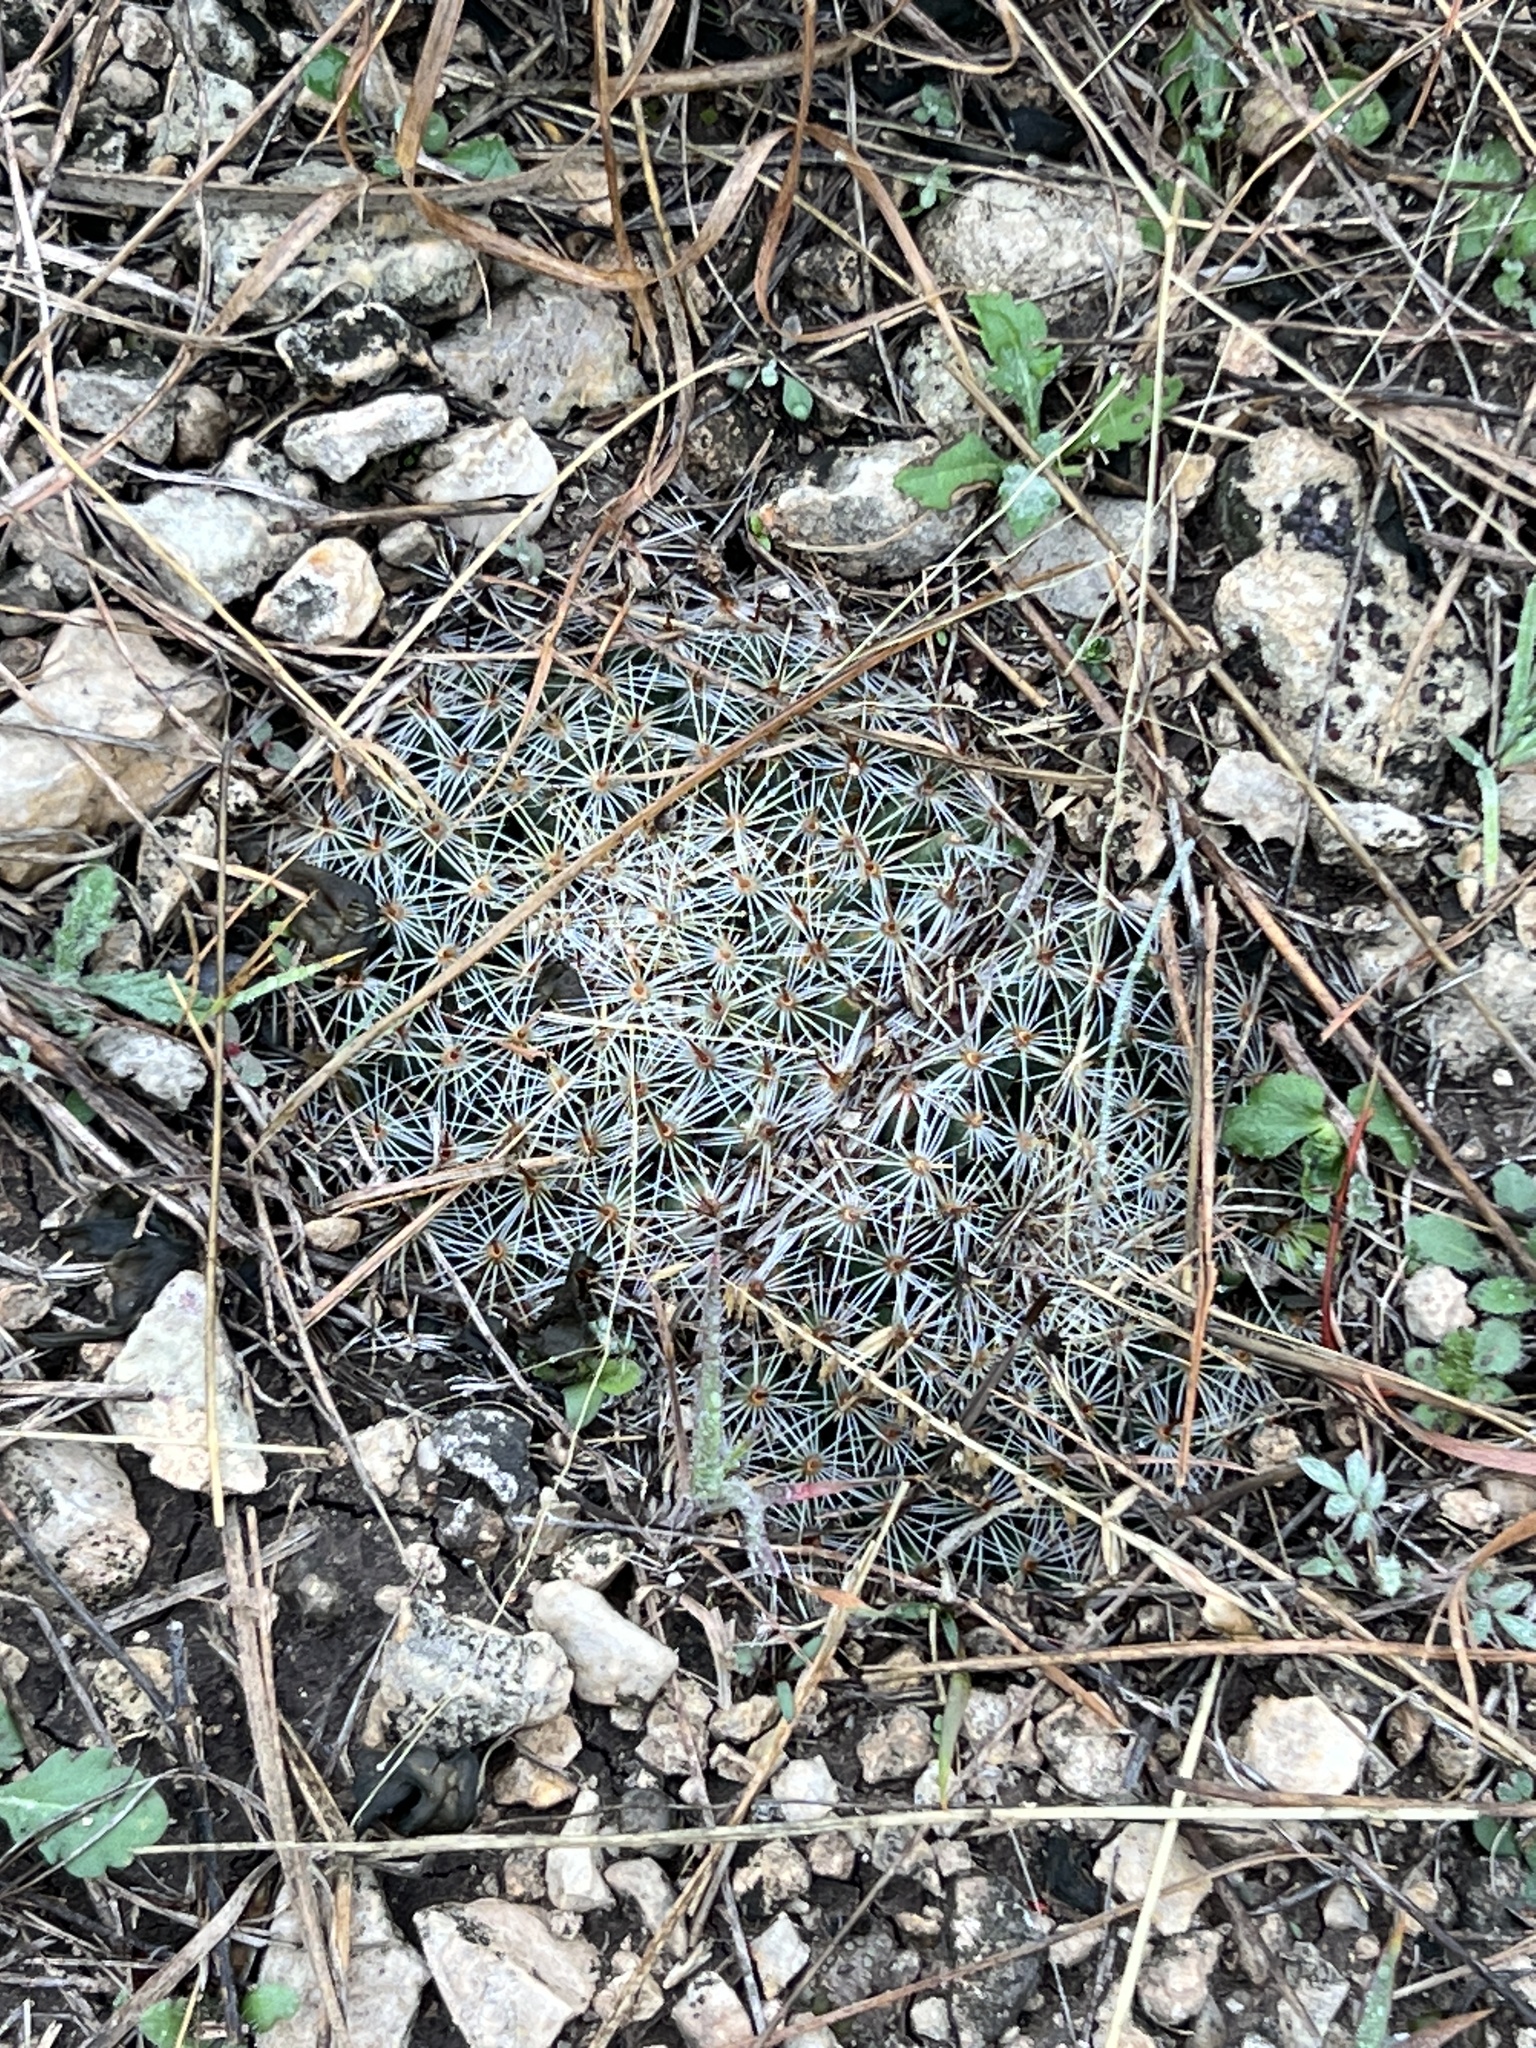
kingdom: Plantae
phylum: Tracheophyta
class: Magnoliopsida
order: Caryophyllales
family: Cactaceae
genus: Mammillaria
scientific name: Mammillaria heyderi
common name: Little nipple cactus
